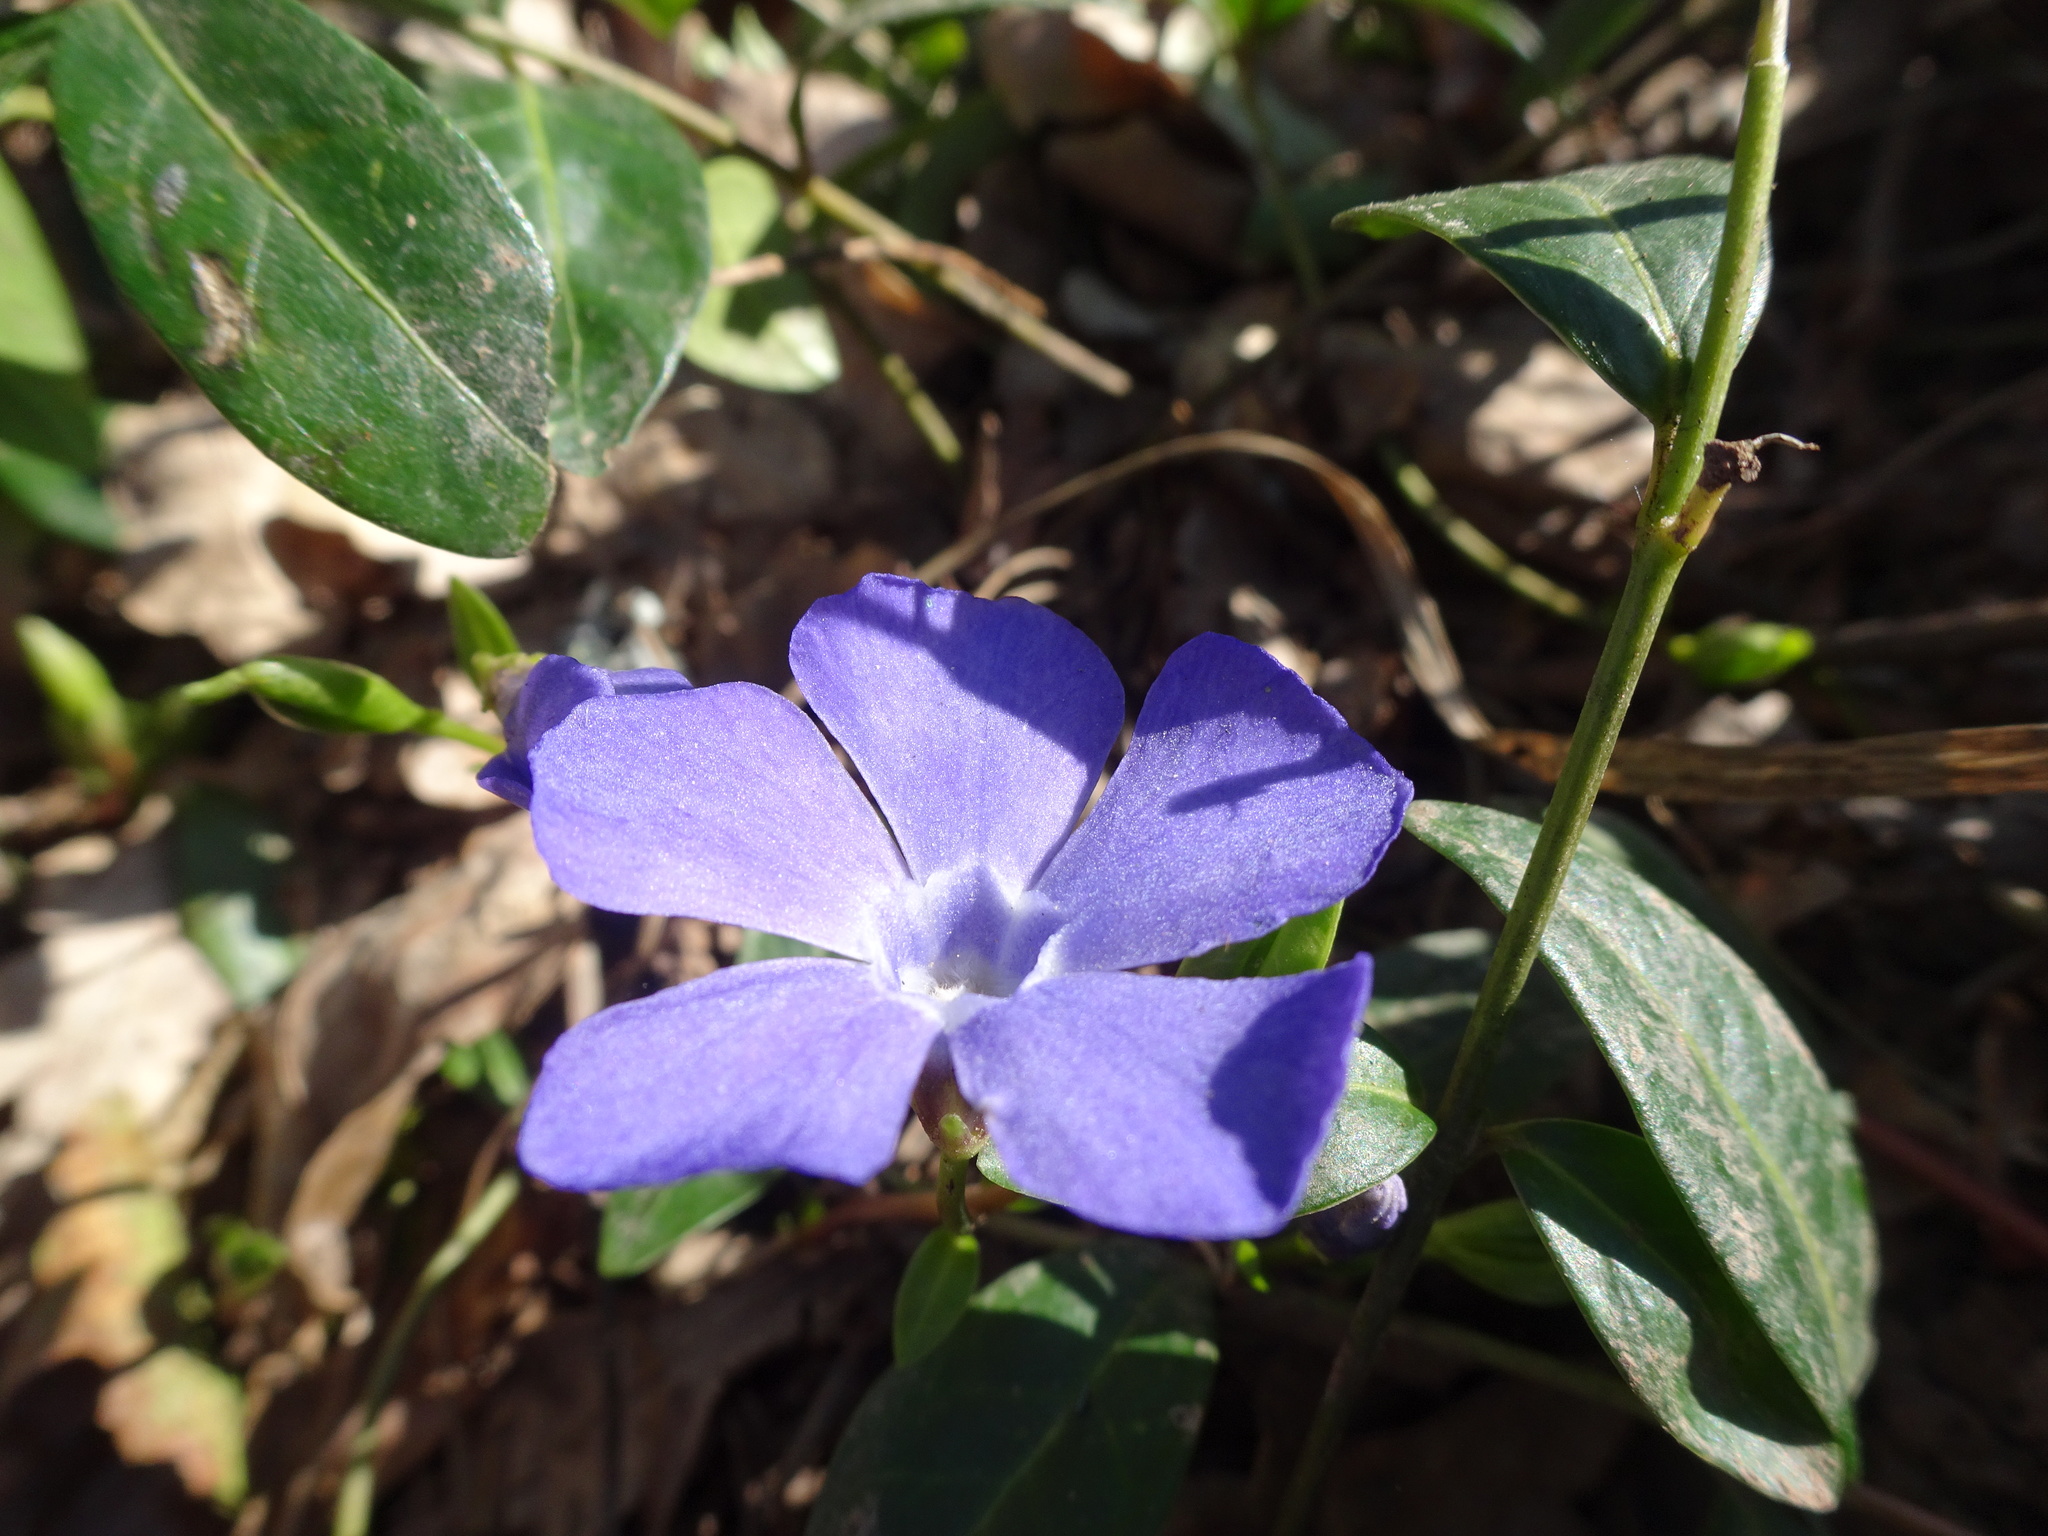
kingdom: Plantae
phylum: Tracheophyta
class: Magnoliopsida
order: Gentianales
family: Apocynaceae
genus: Vinca
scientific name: Vinca minor
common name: Lesser periwinkle
